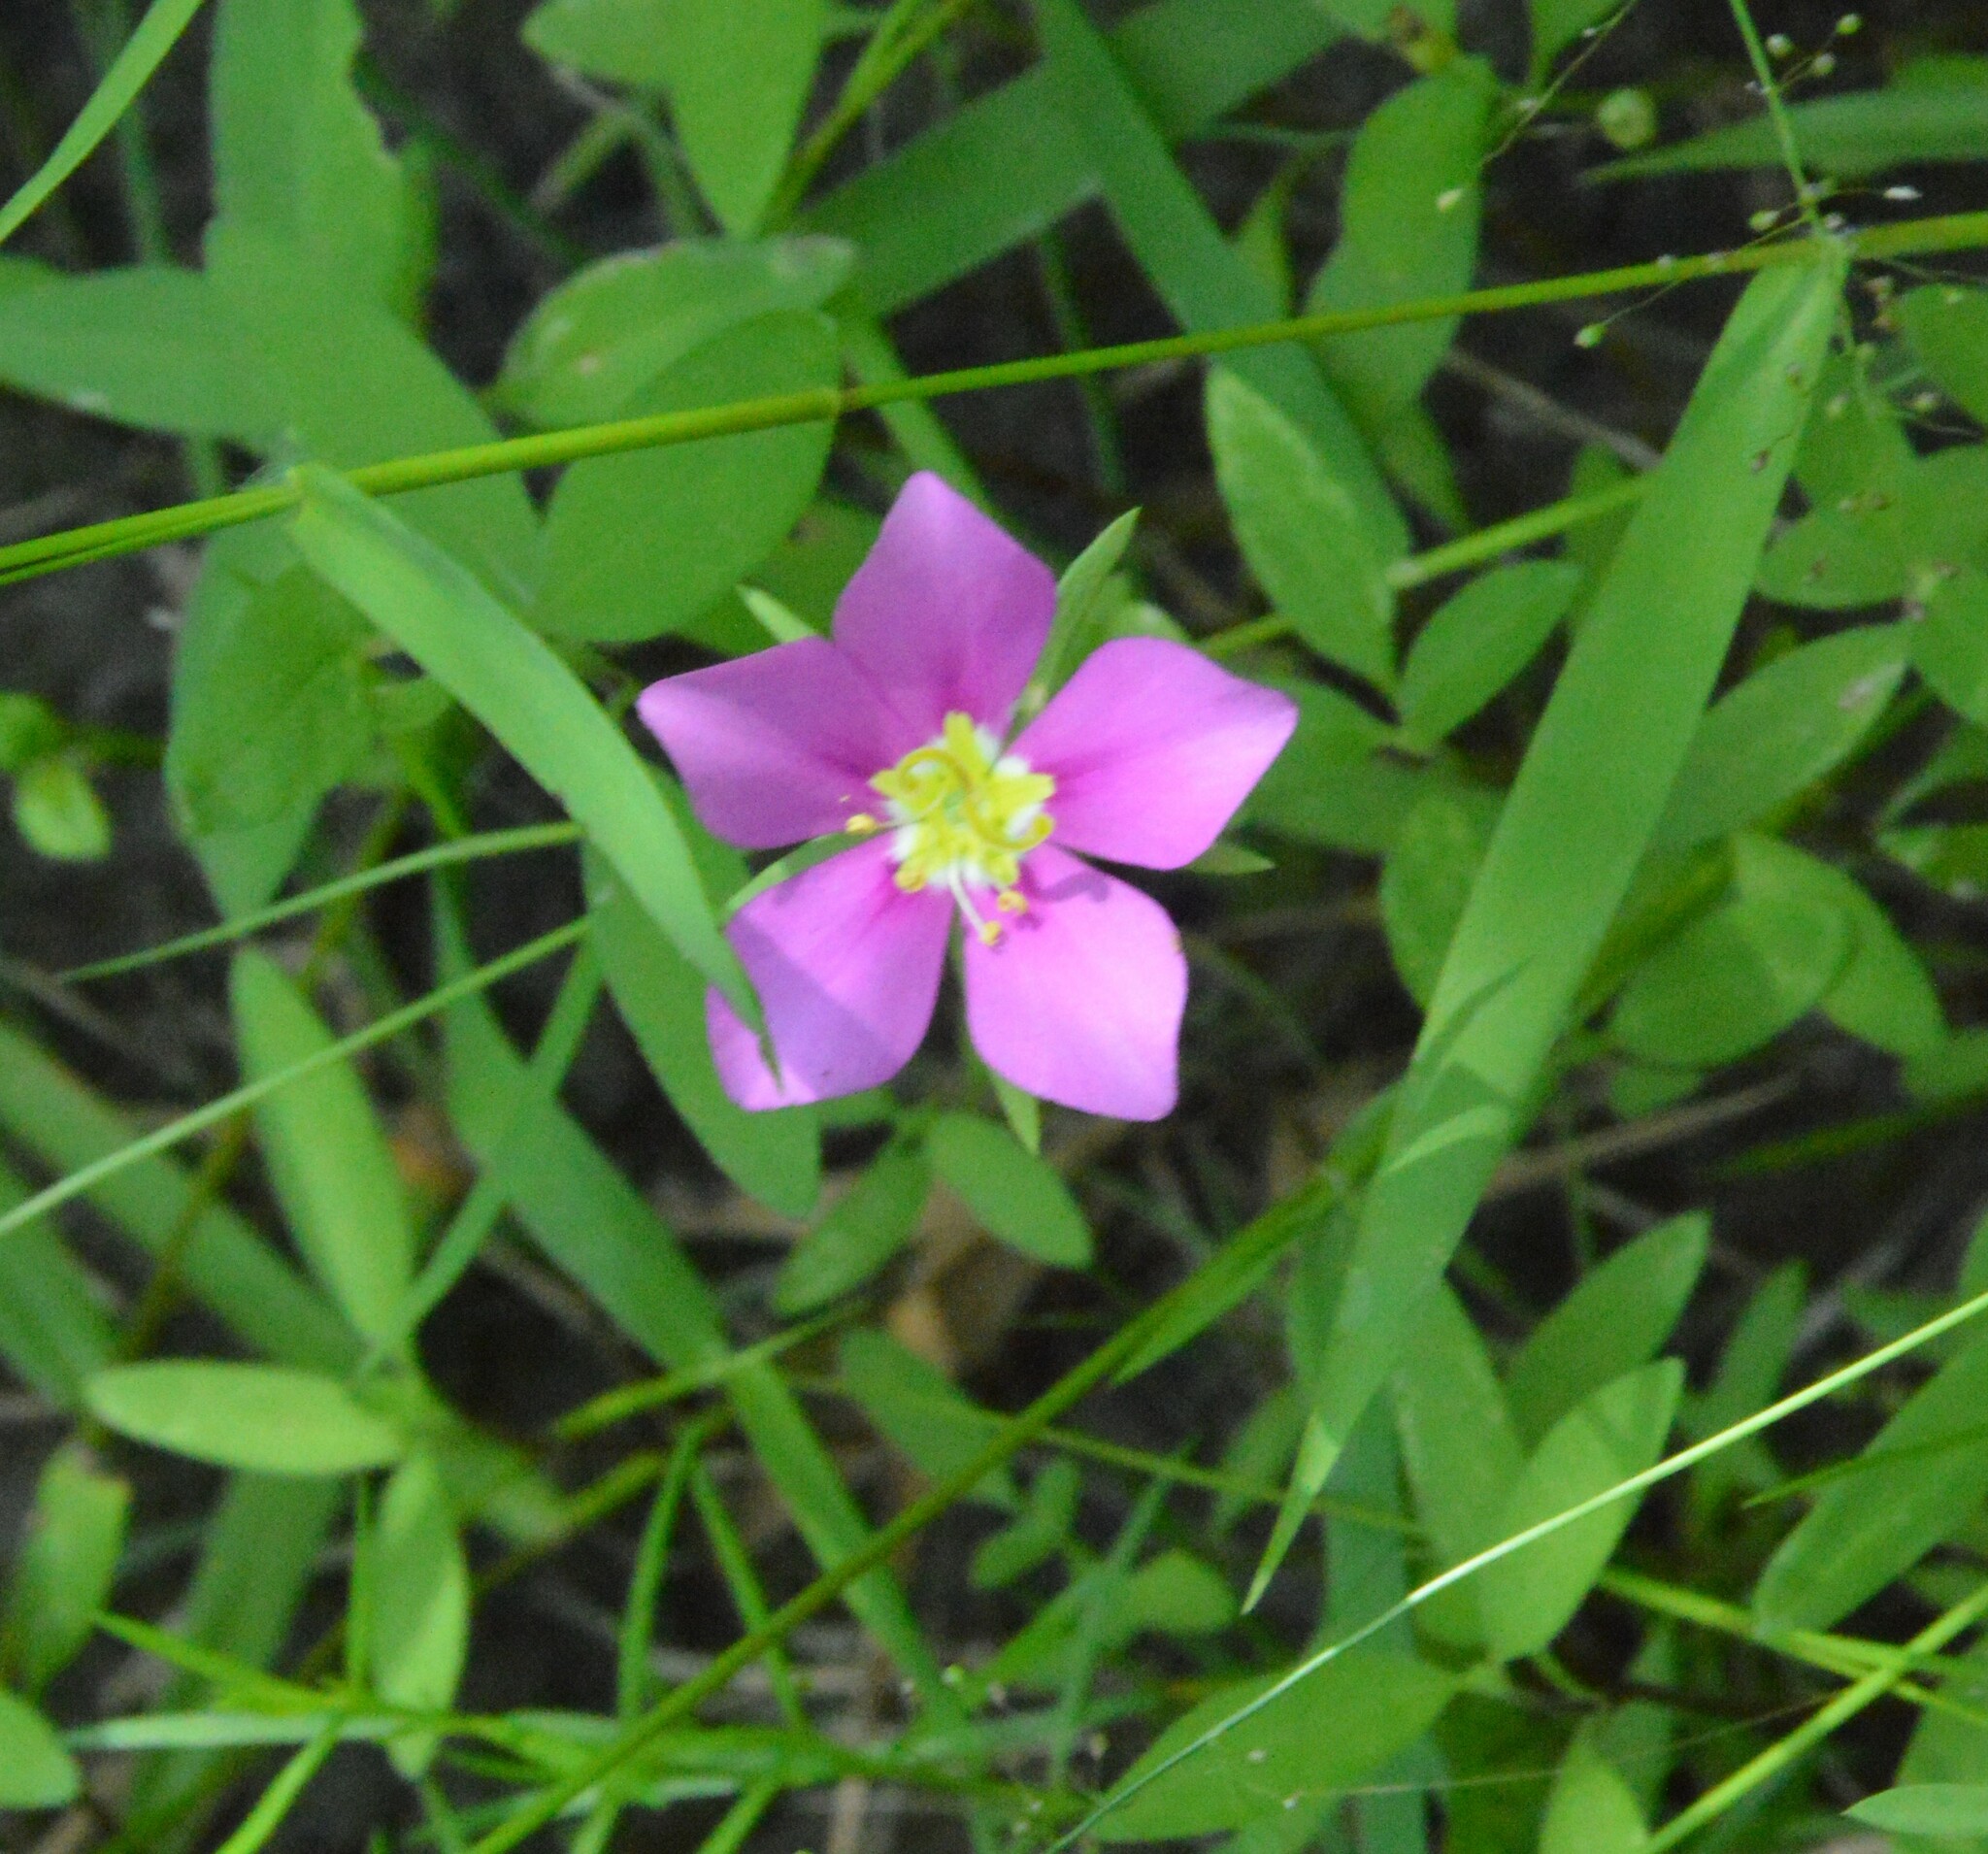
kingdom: Plantae
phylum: Tracheophyta
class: Magnoliopsida
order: Gentianales
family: Gentianaceae
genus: Sabatia
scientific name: Sabatia campestris
